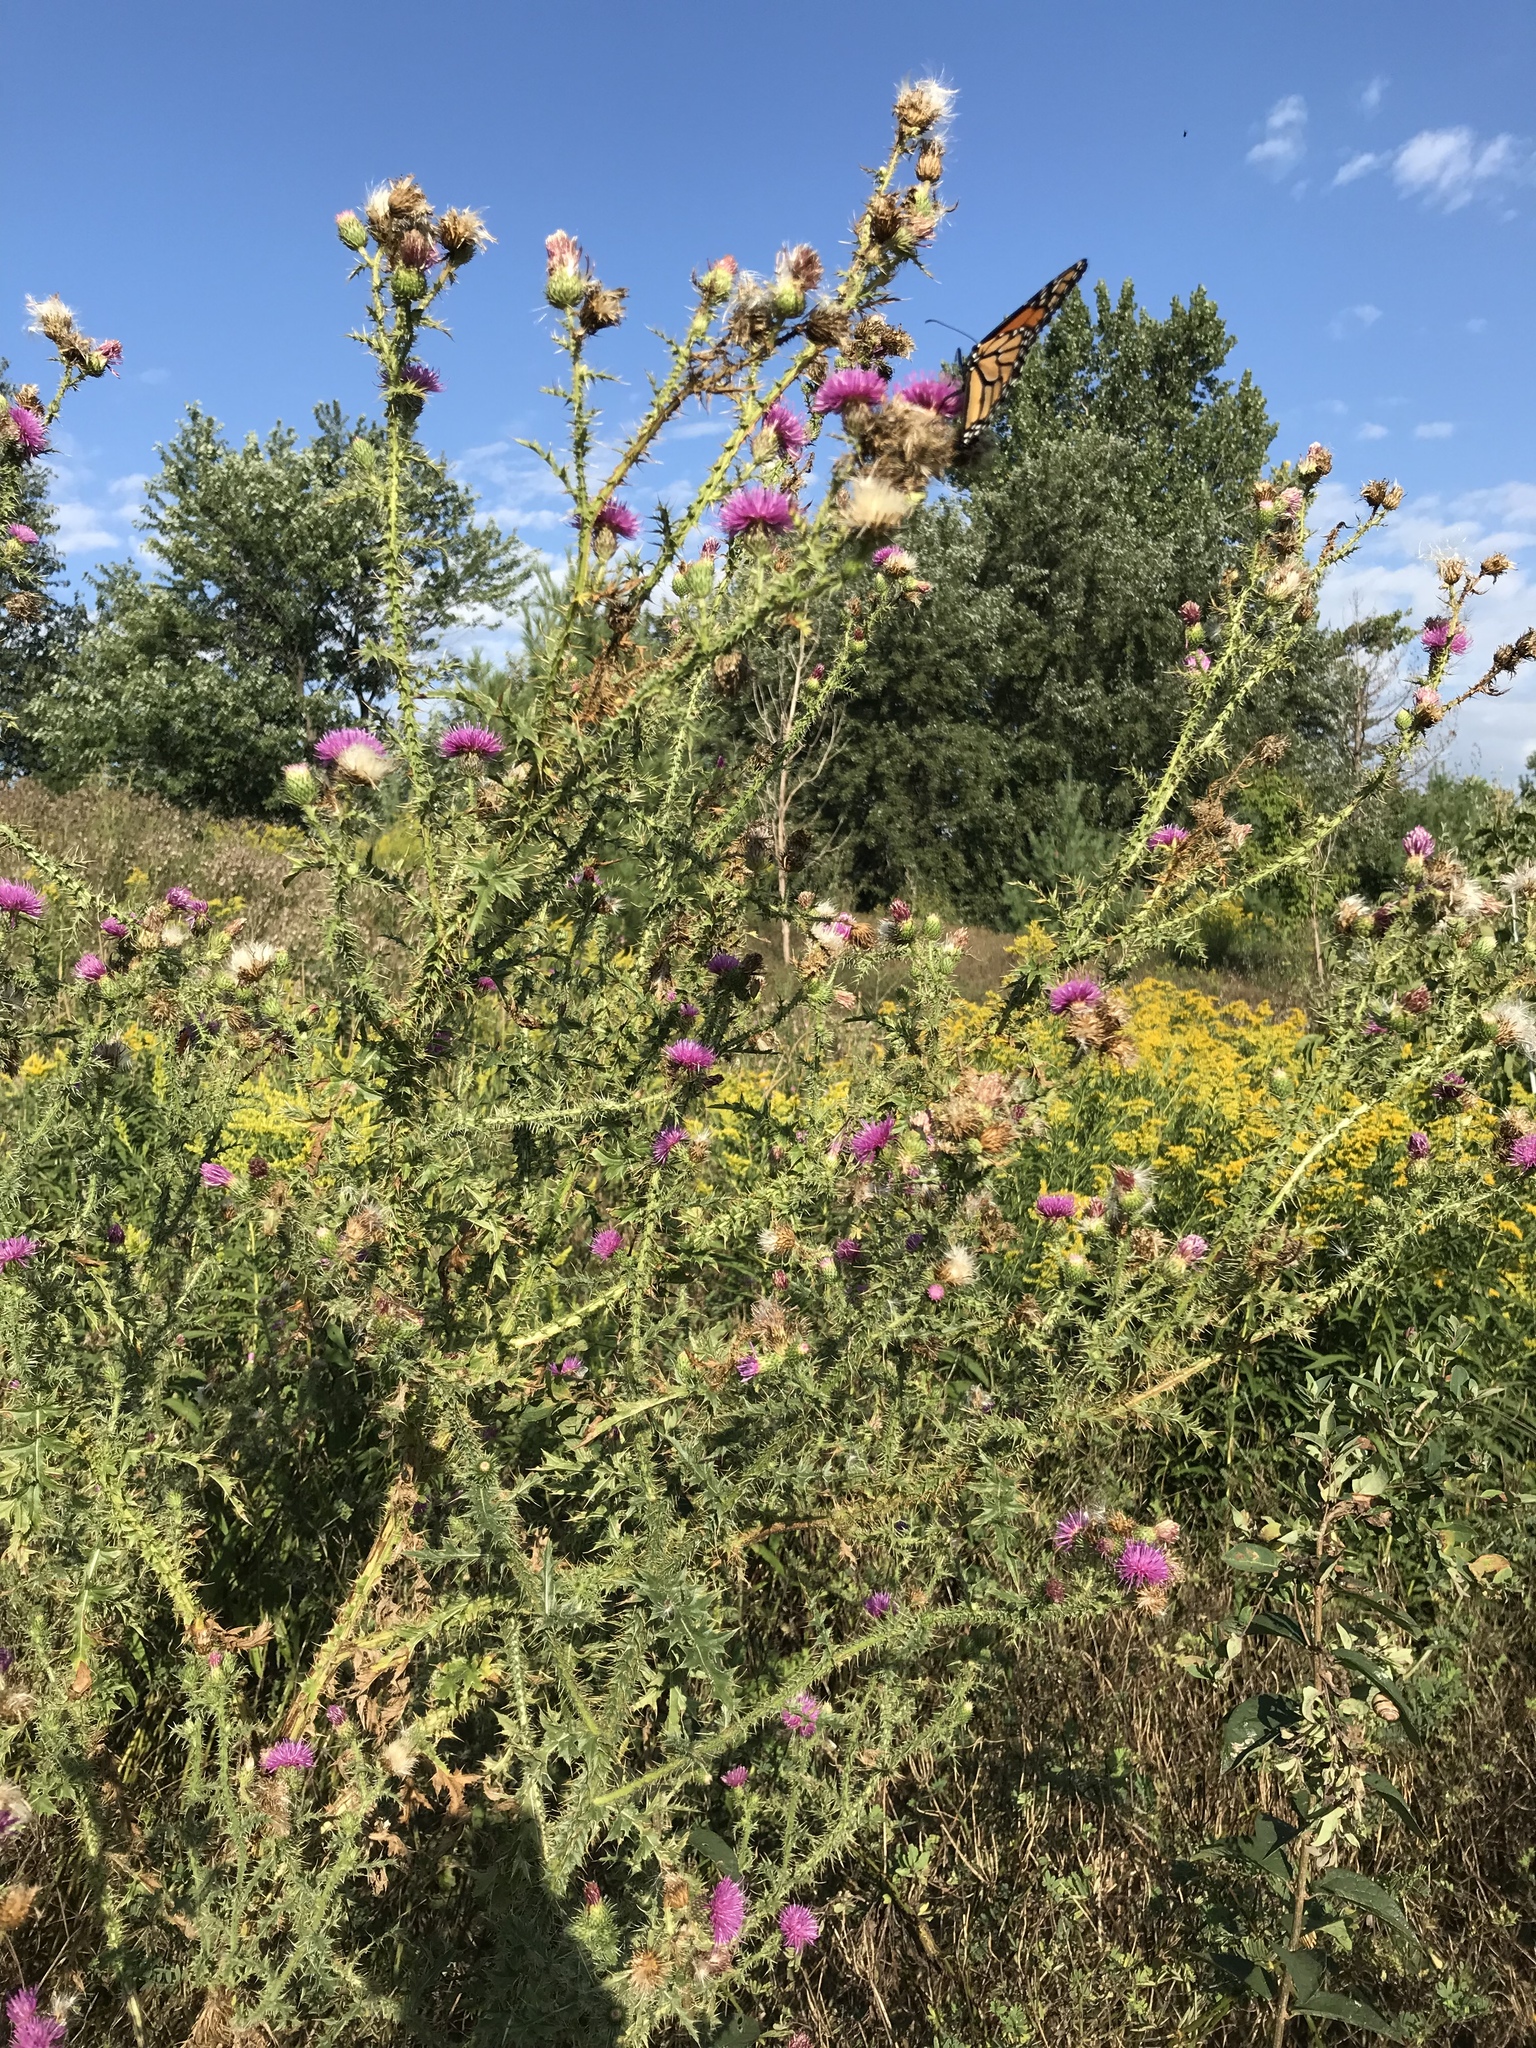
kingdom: Animalia
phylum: Arthropoda
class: Insecta
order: Lepidoptera
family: Nymphalidae
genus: Danaus
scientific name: Danaus plexippus
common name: Monarch
